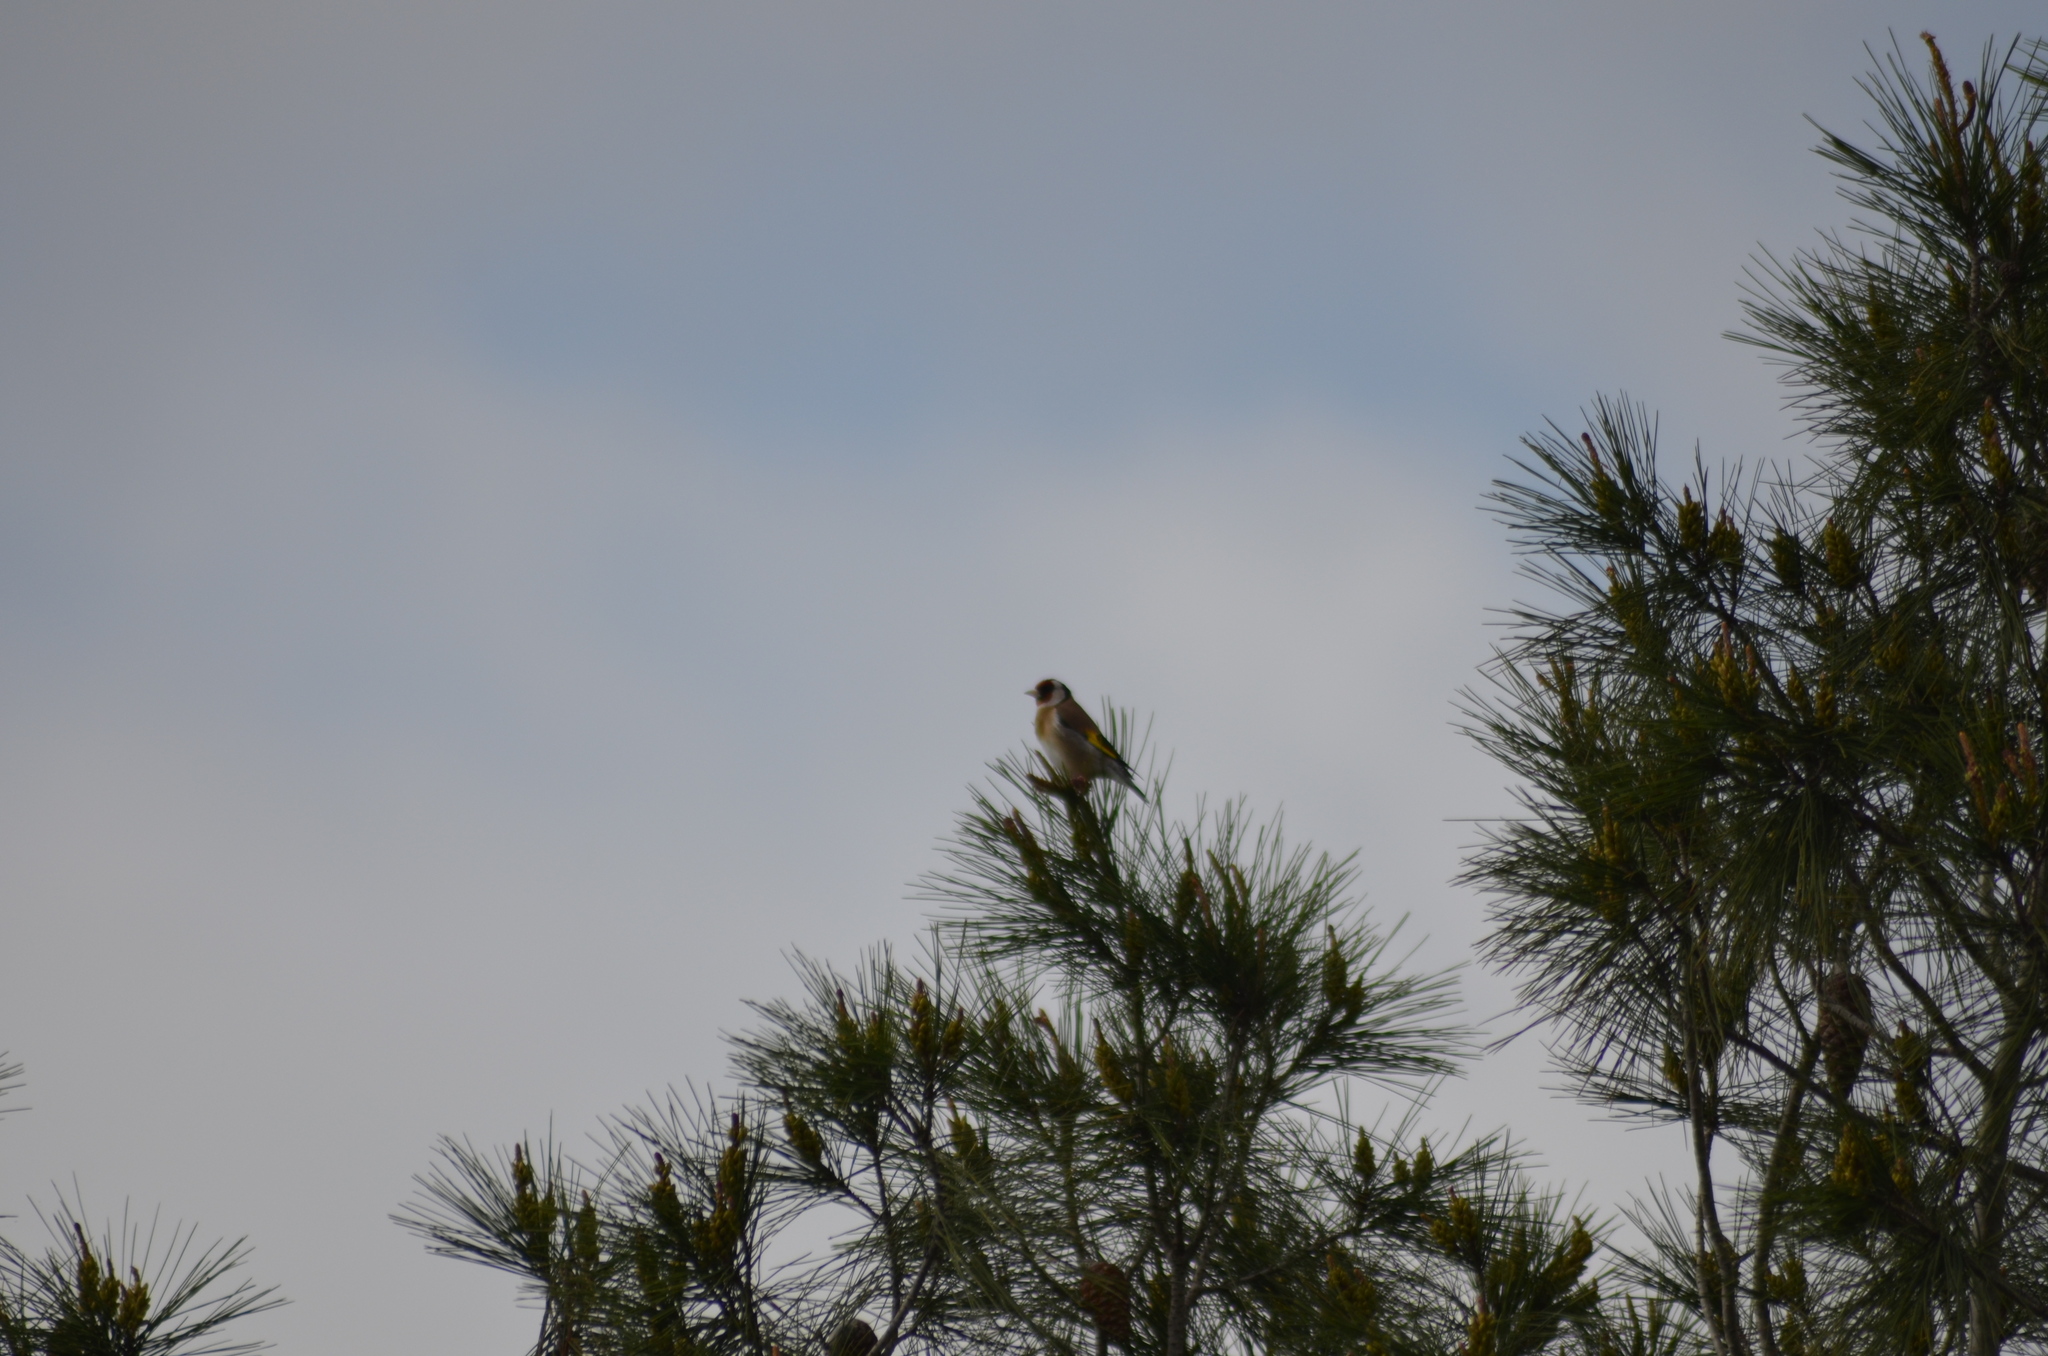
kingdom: Animalia
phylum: Chordata
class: Aves
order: Passeriformes
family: Fringillidae
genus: Carduelis
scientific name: Carduelis carduelis
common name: European goldfinch
